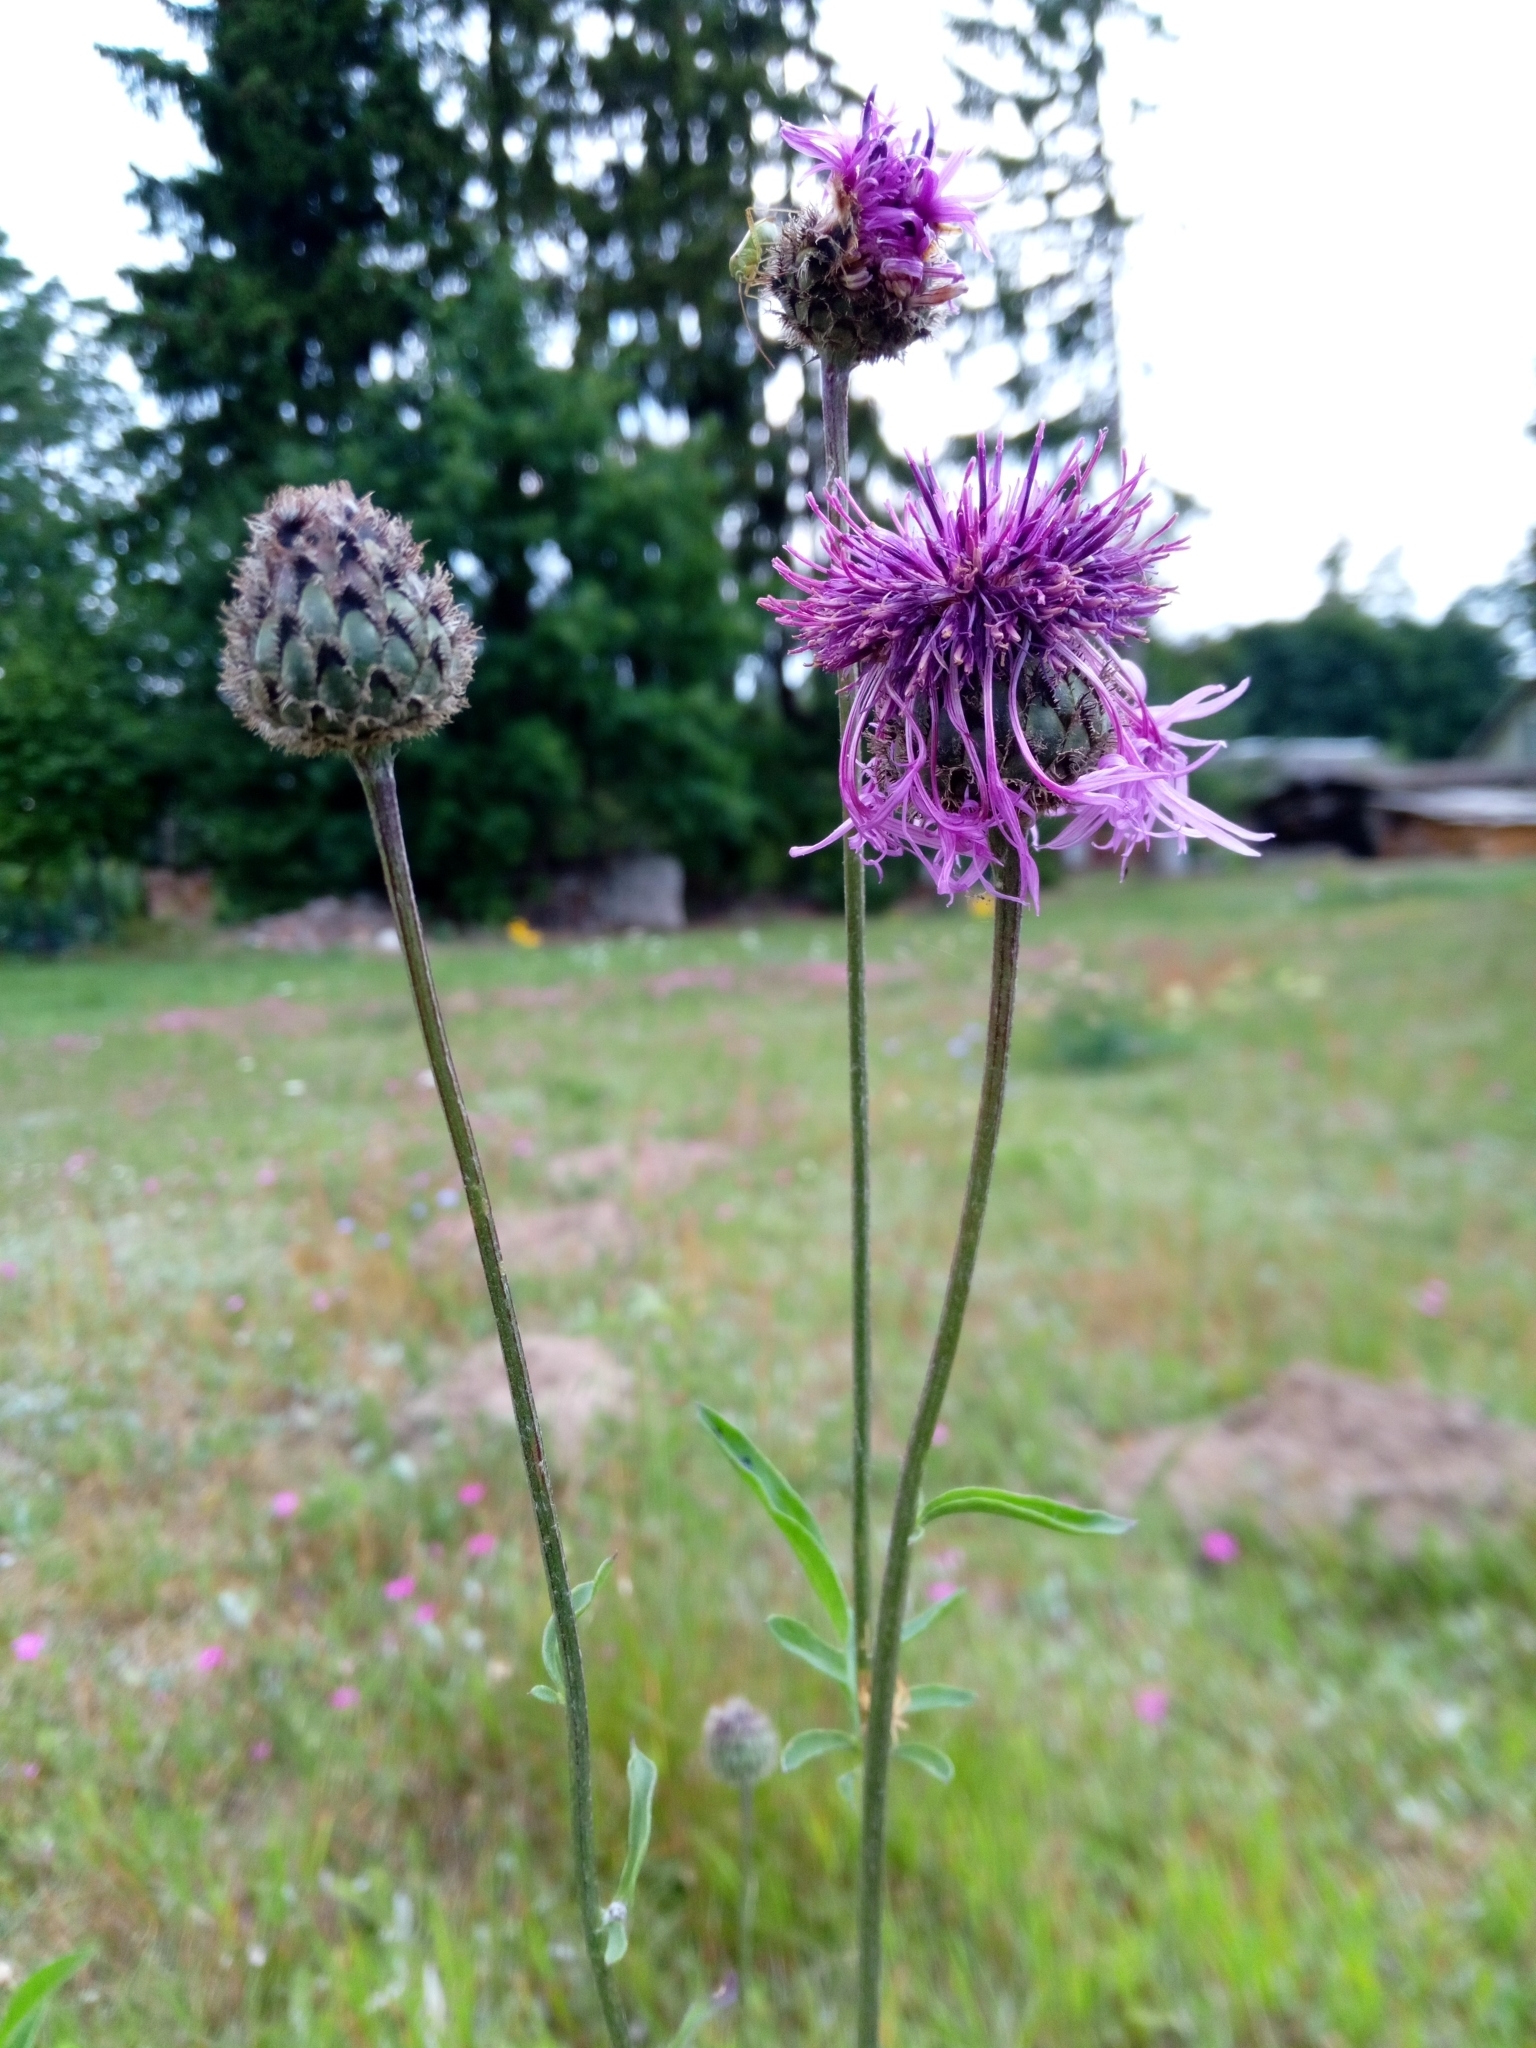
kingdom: Plantae
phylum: Tracheophyta
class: Magnoliopsida
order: Asterales
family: Asteraceae
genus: Centaurea
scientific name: Centaurea scabiosa
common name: Greater knapweed
